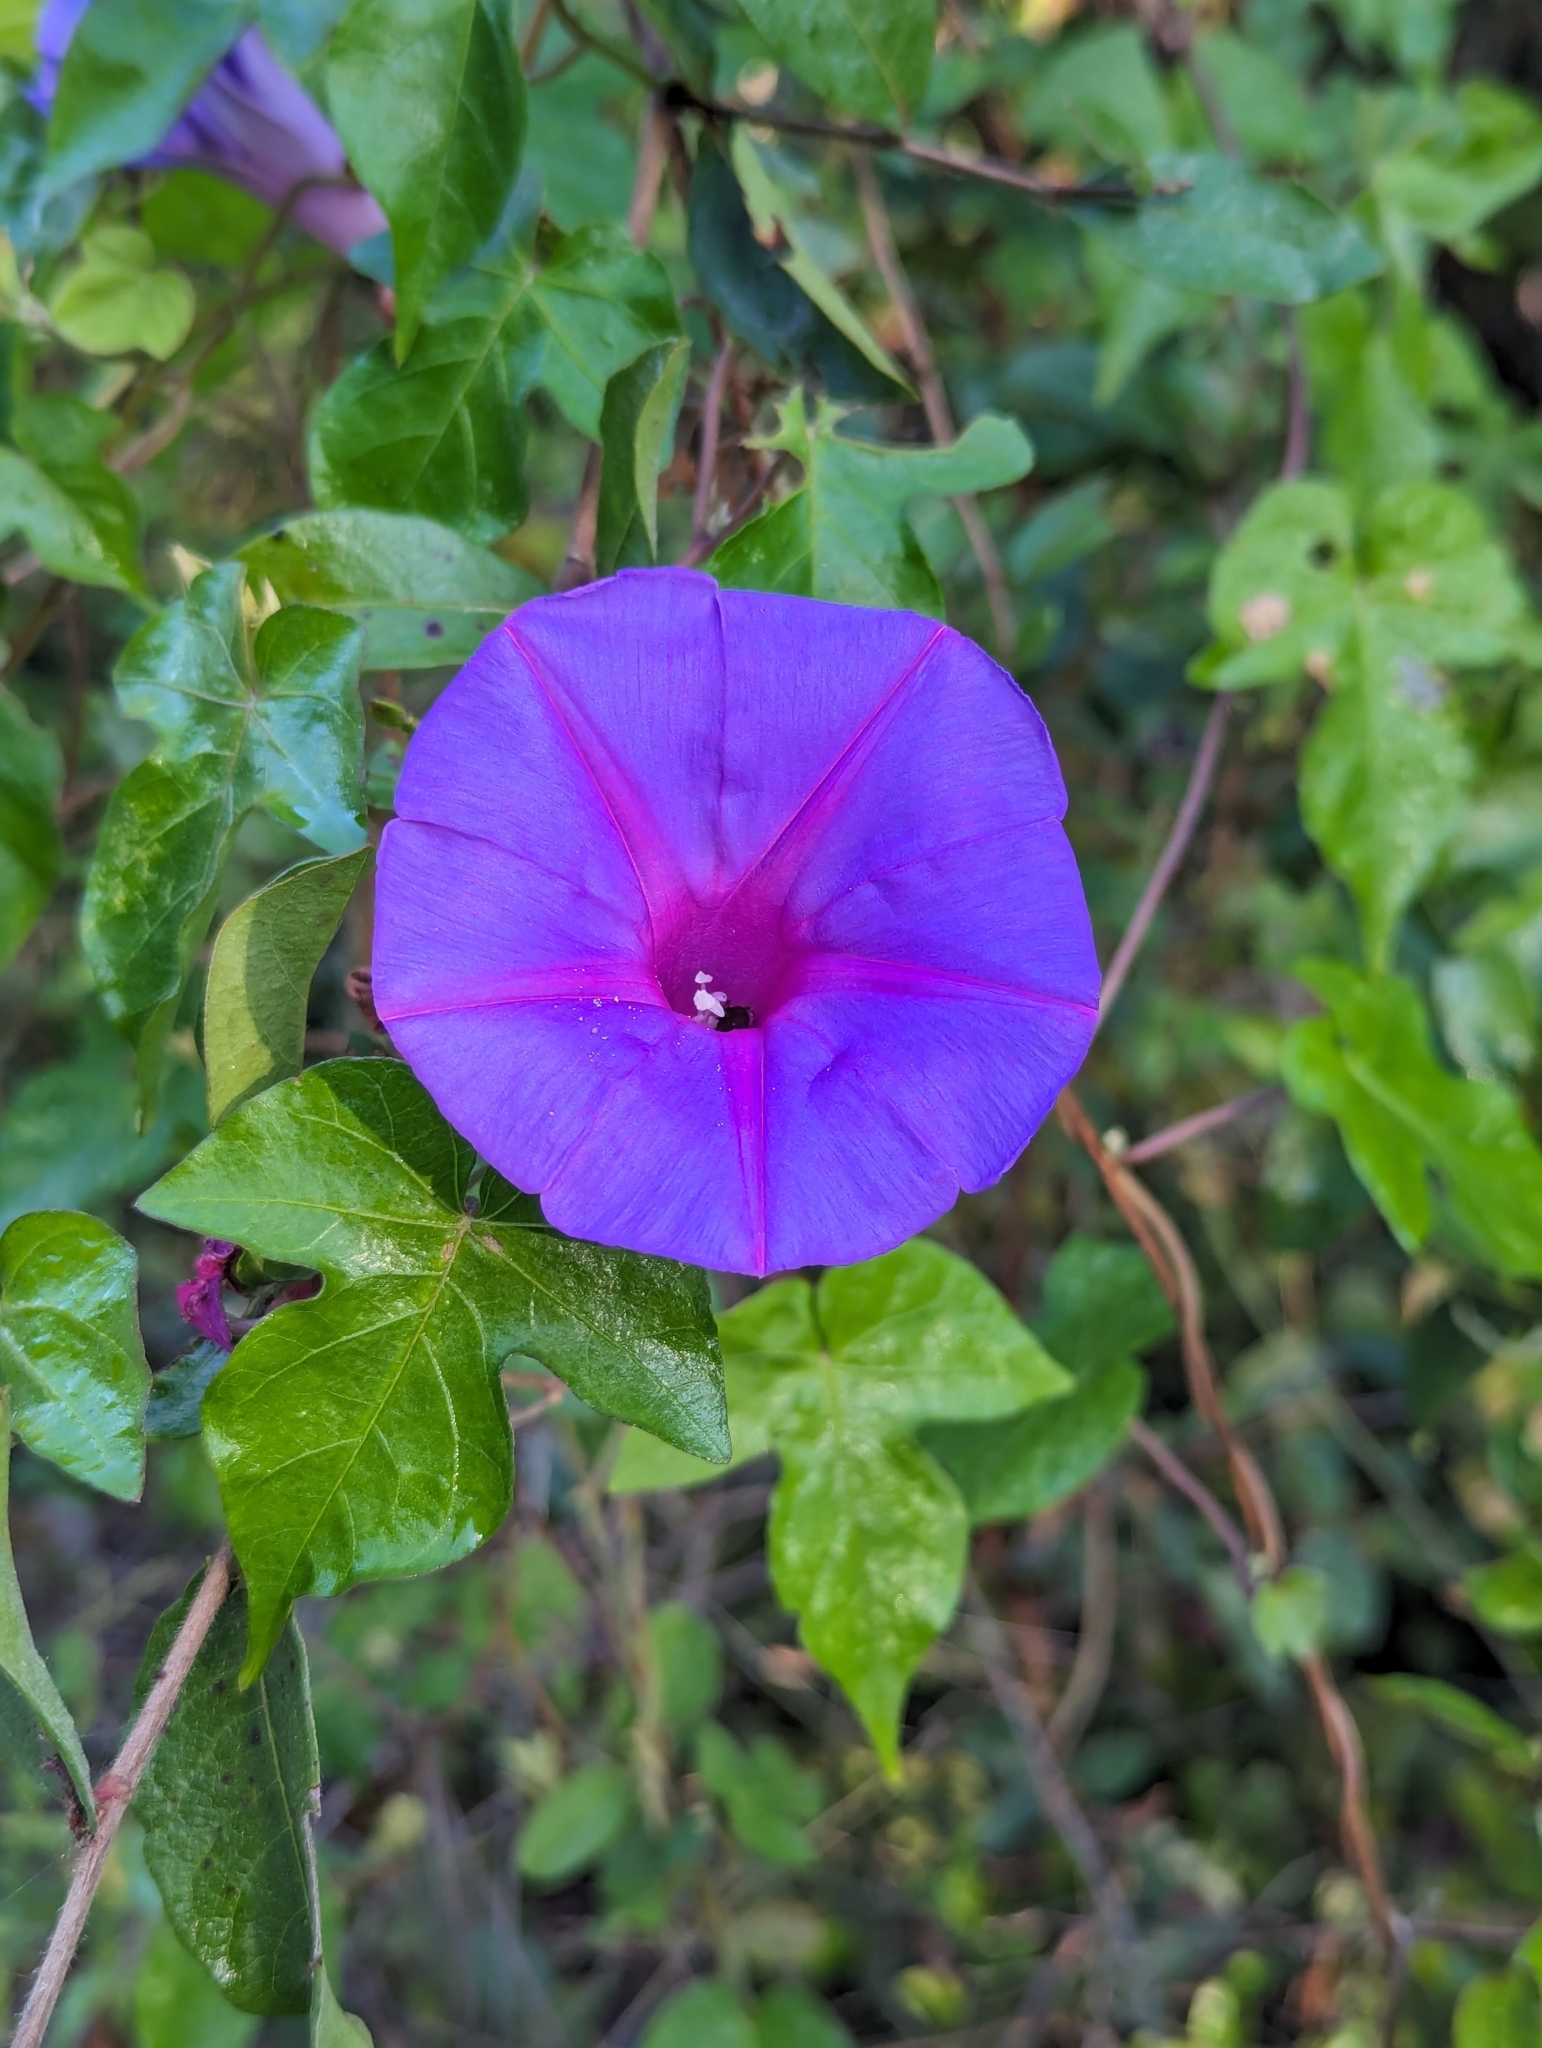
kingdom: Plantae
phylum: Tracheophyta
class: Magnoliopsida
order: Solanales
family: Convolvulaceae
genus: Ipomoea
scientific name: Ipomoea indica
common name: Blue dawnflower
